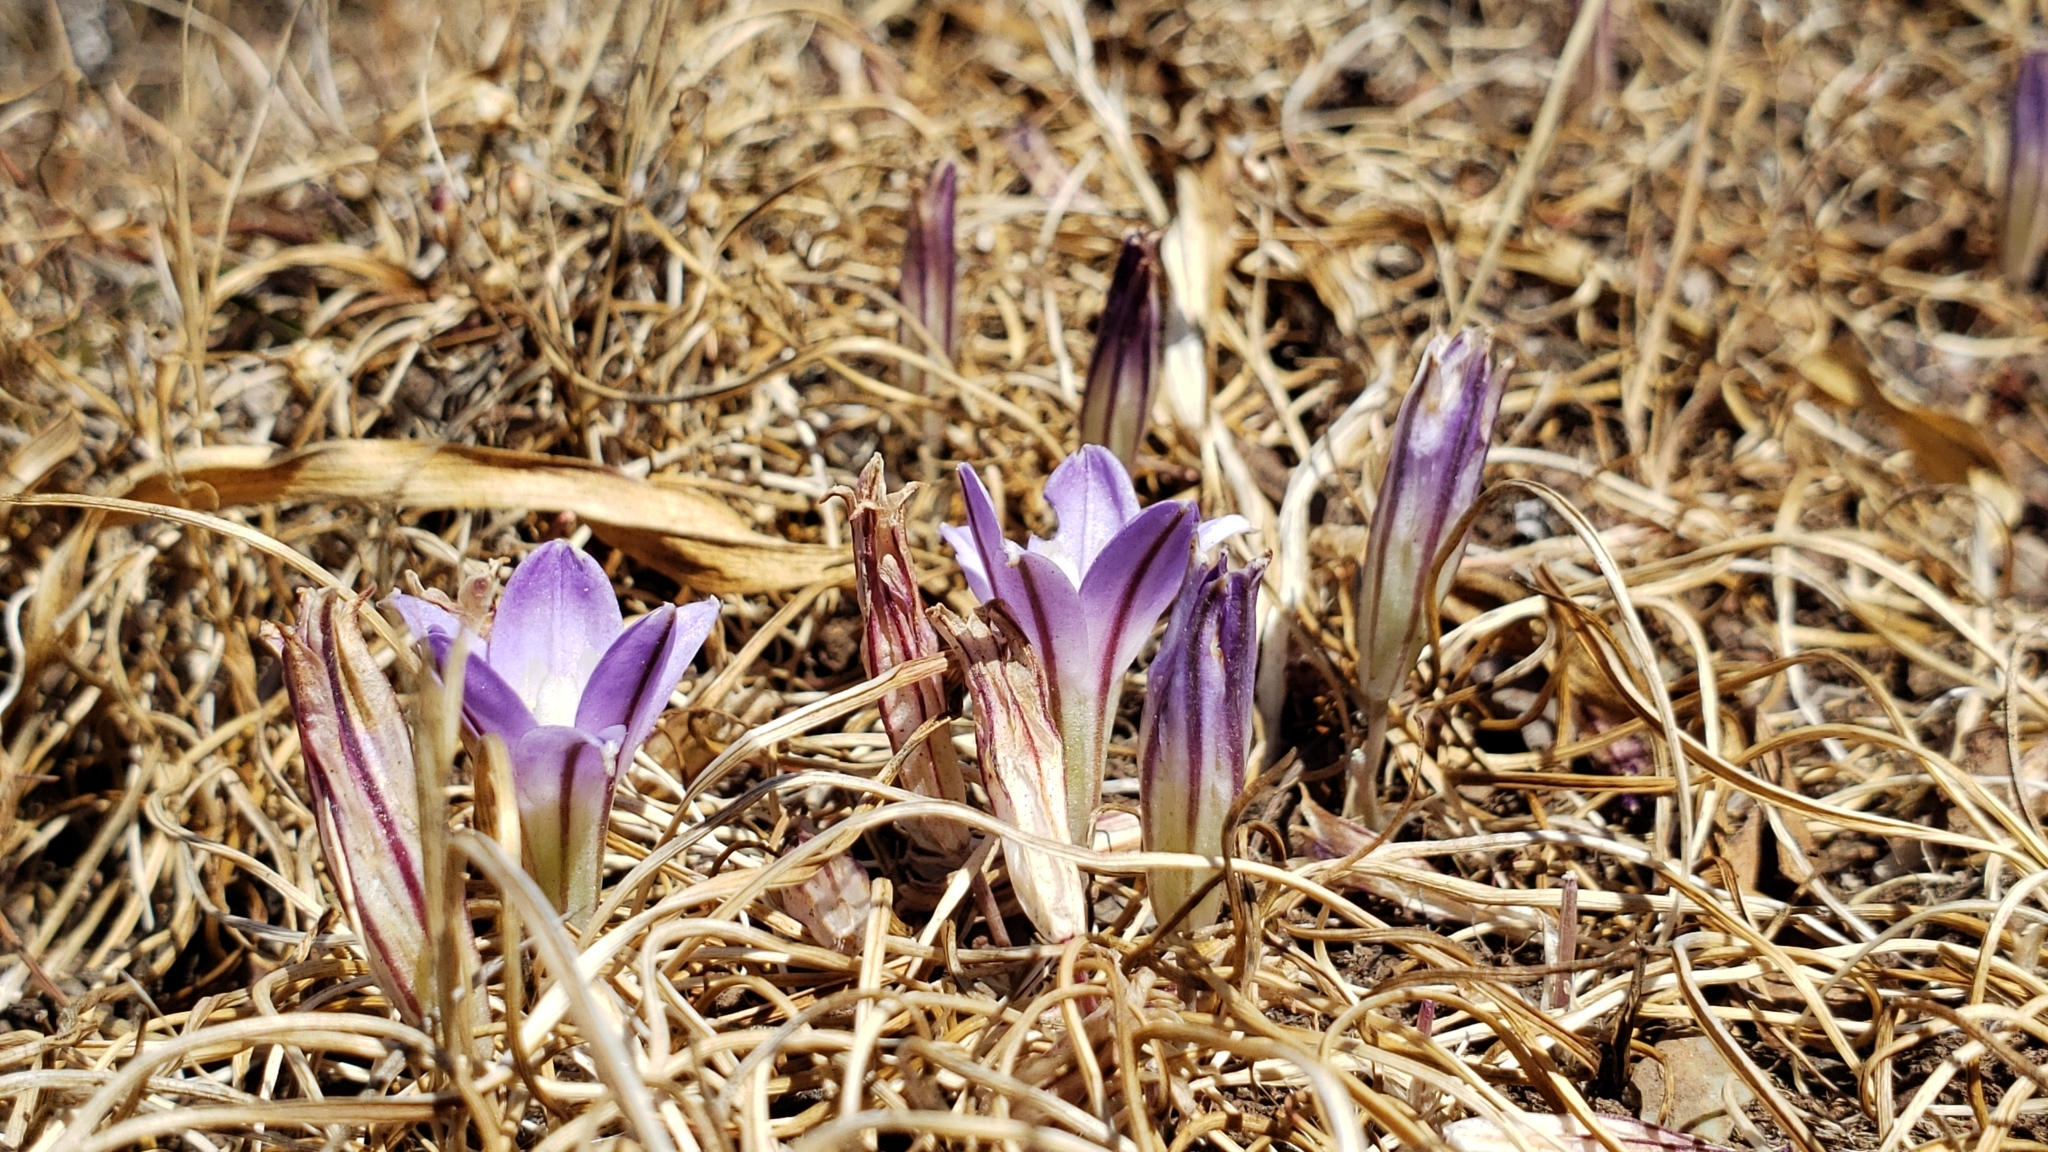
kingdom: Plantae
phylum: Tracheophyta
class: Liliopsida
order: Asparagales
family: Asparagaceae
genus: Brodiaea
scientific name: Brodiaea terrestris
